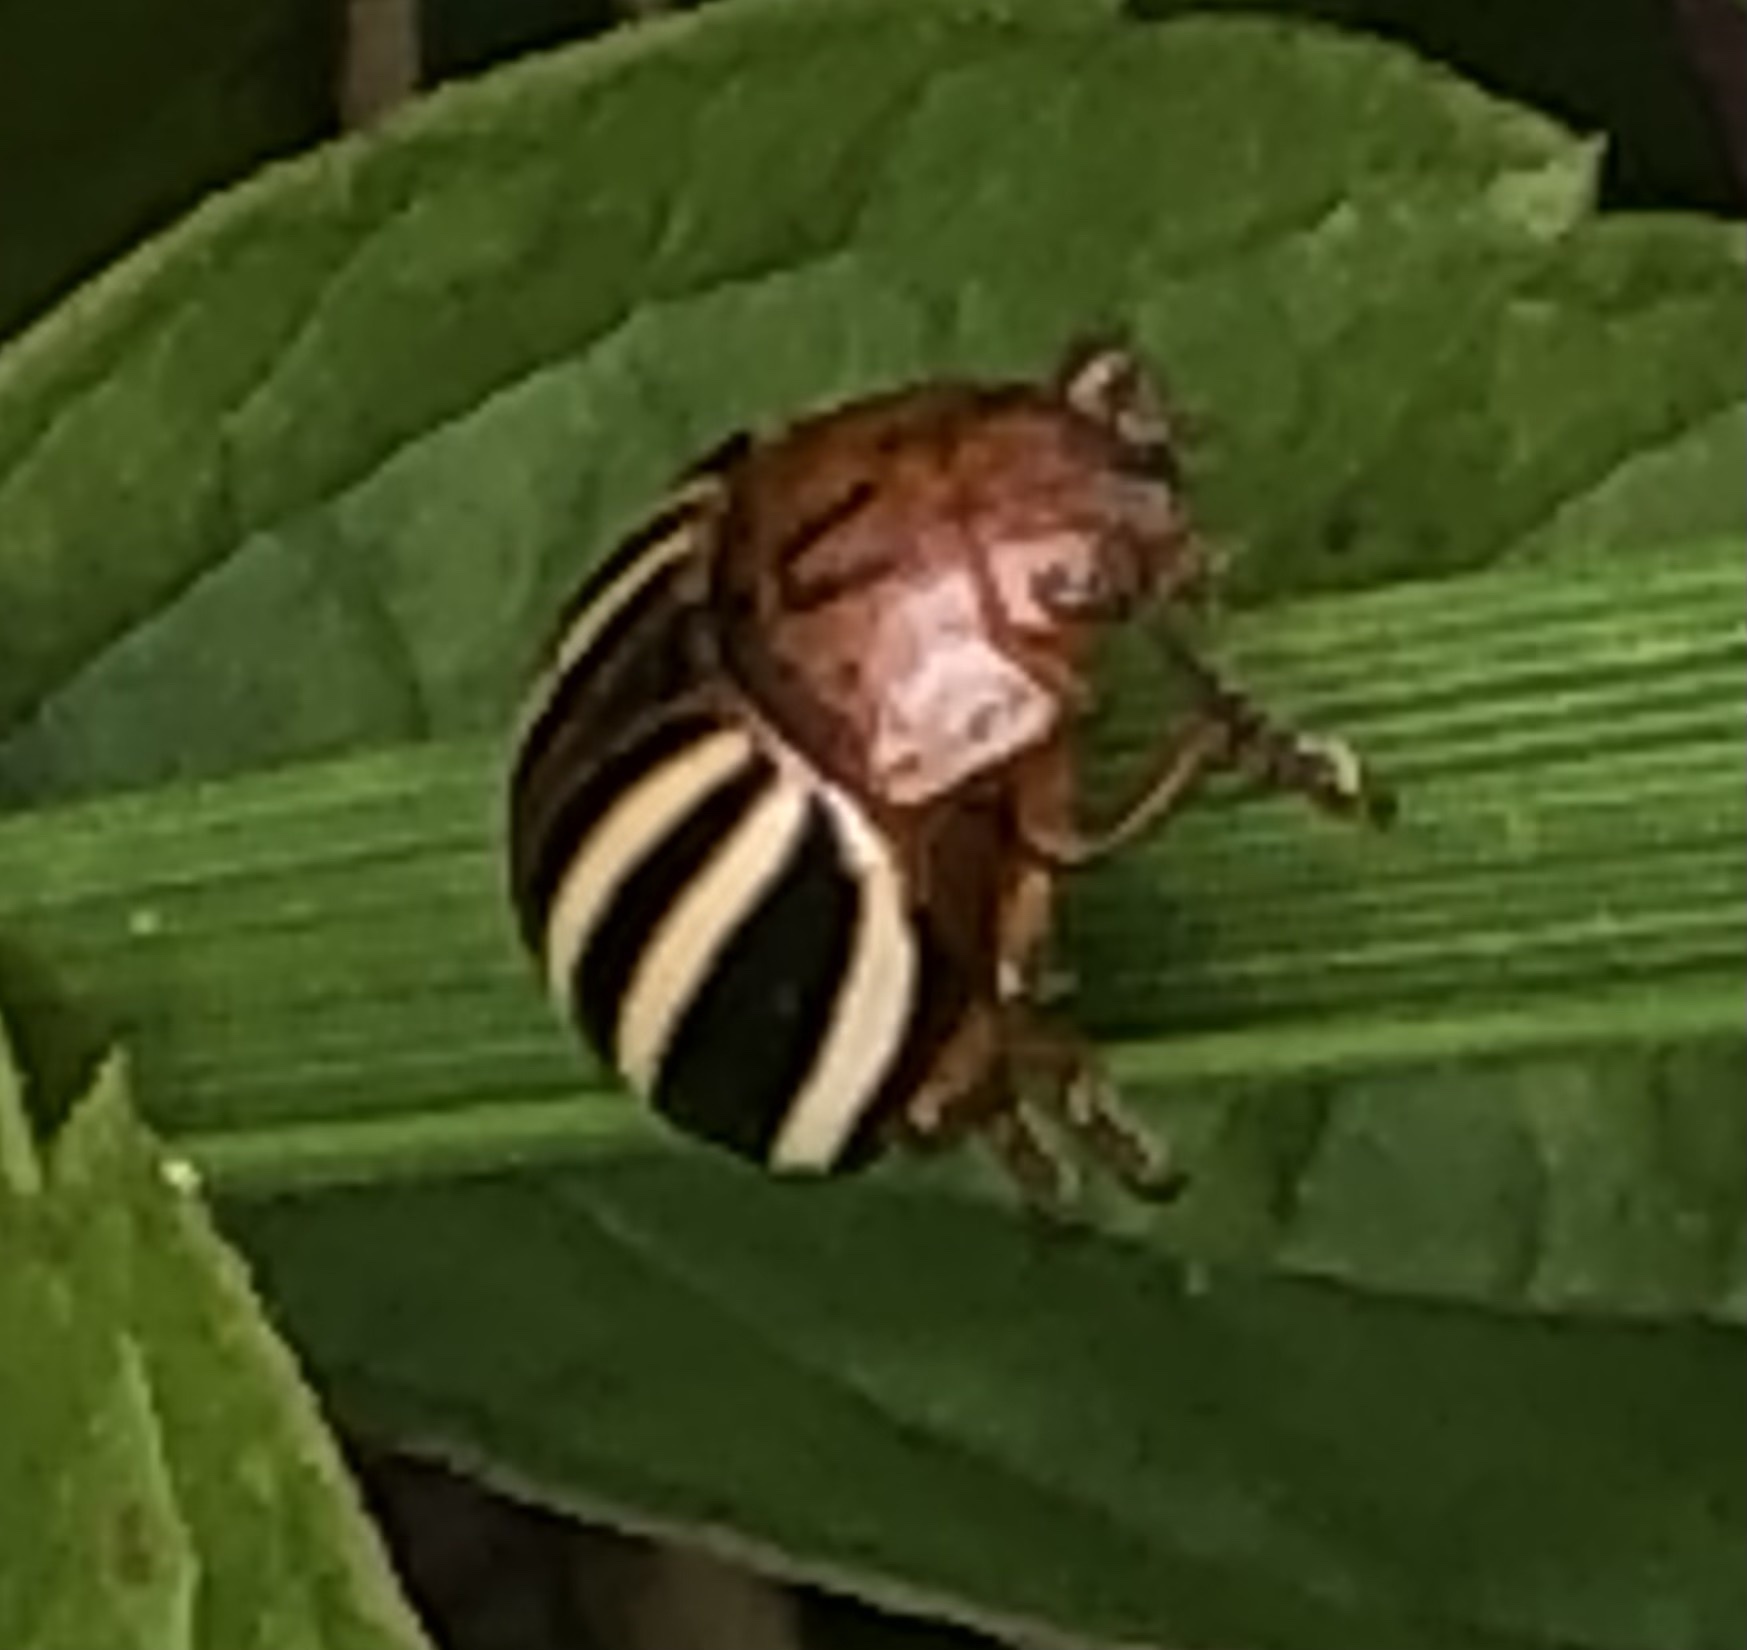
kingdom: Animalia
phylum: Arthropoda
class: Insecta
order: Coleoptera
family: Chrysomelidae
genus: Leptinotarsa
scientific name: Leptinotarsa juncta
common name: False potato beetle
